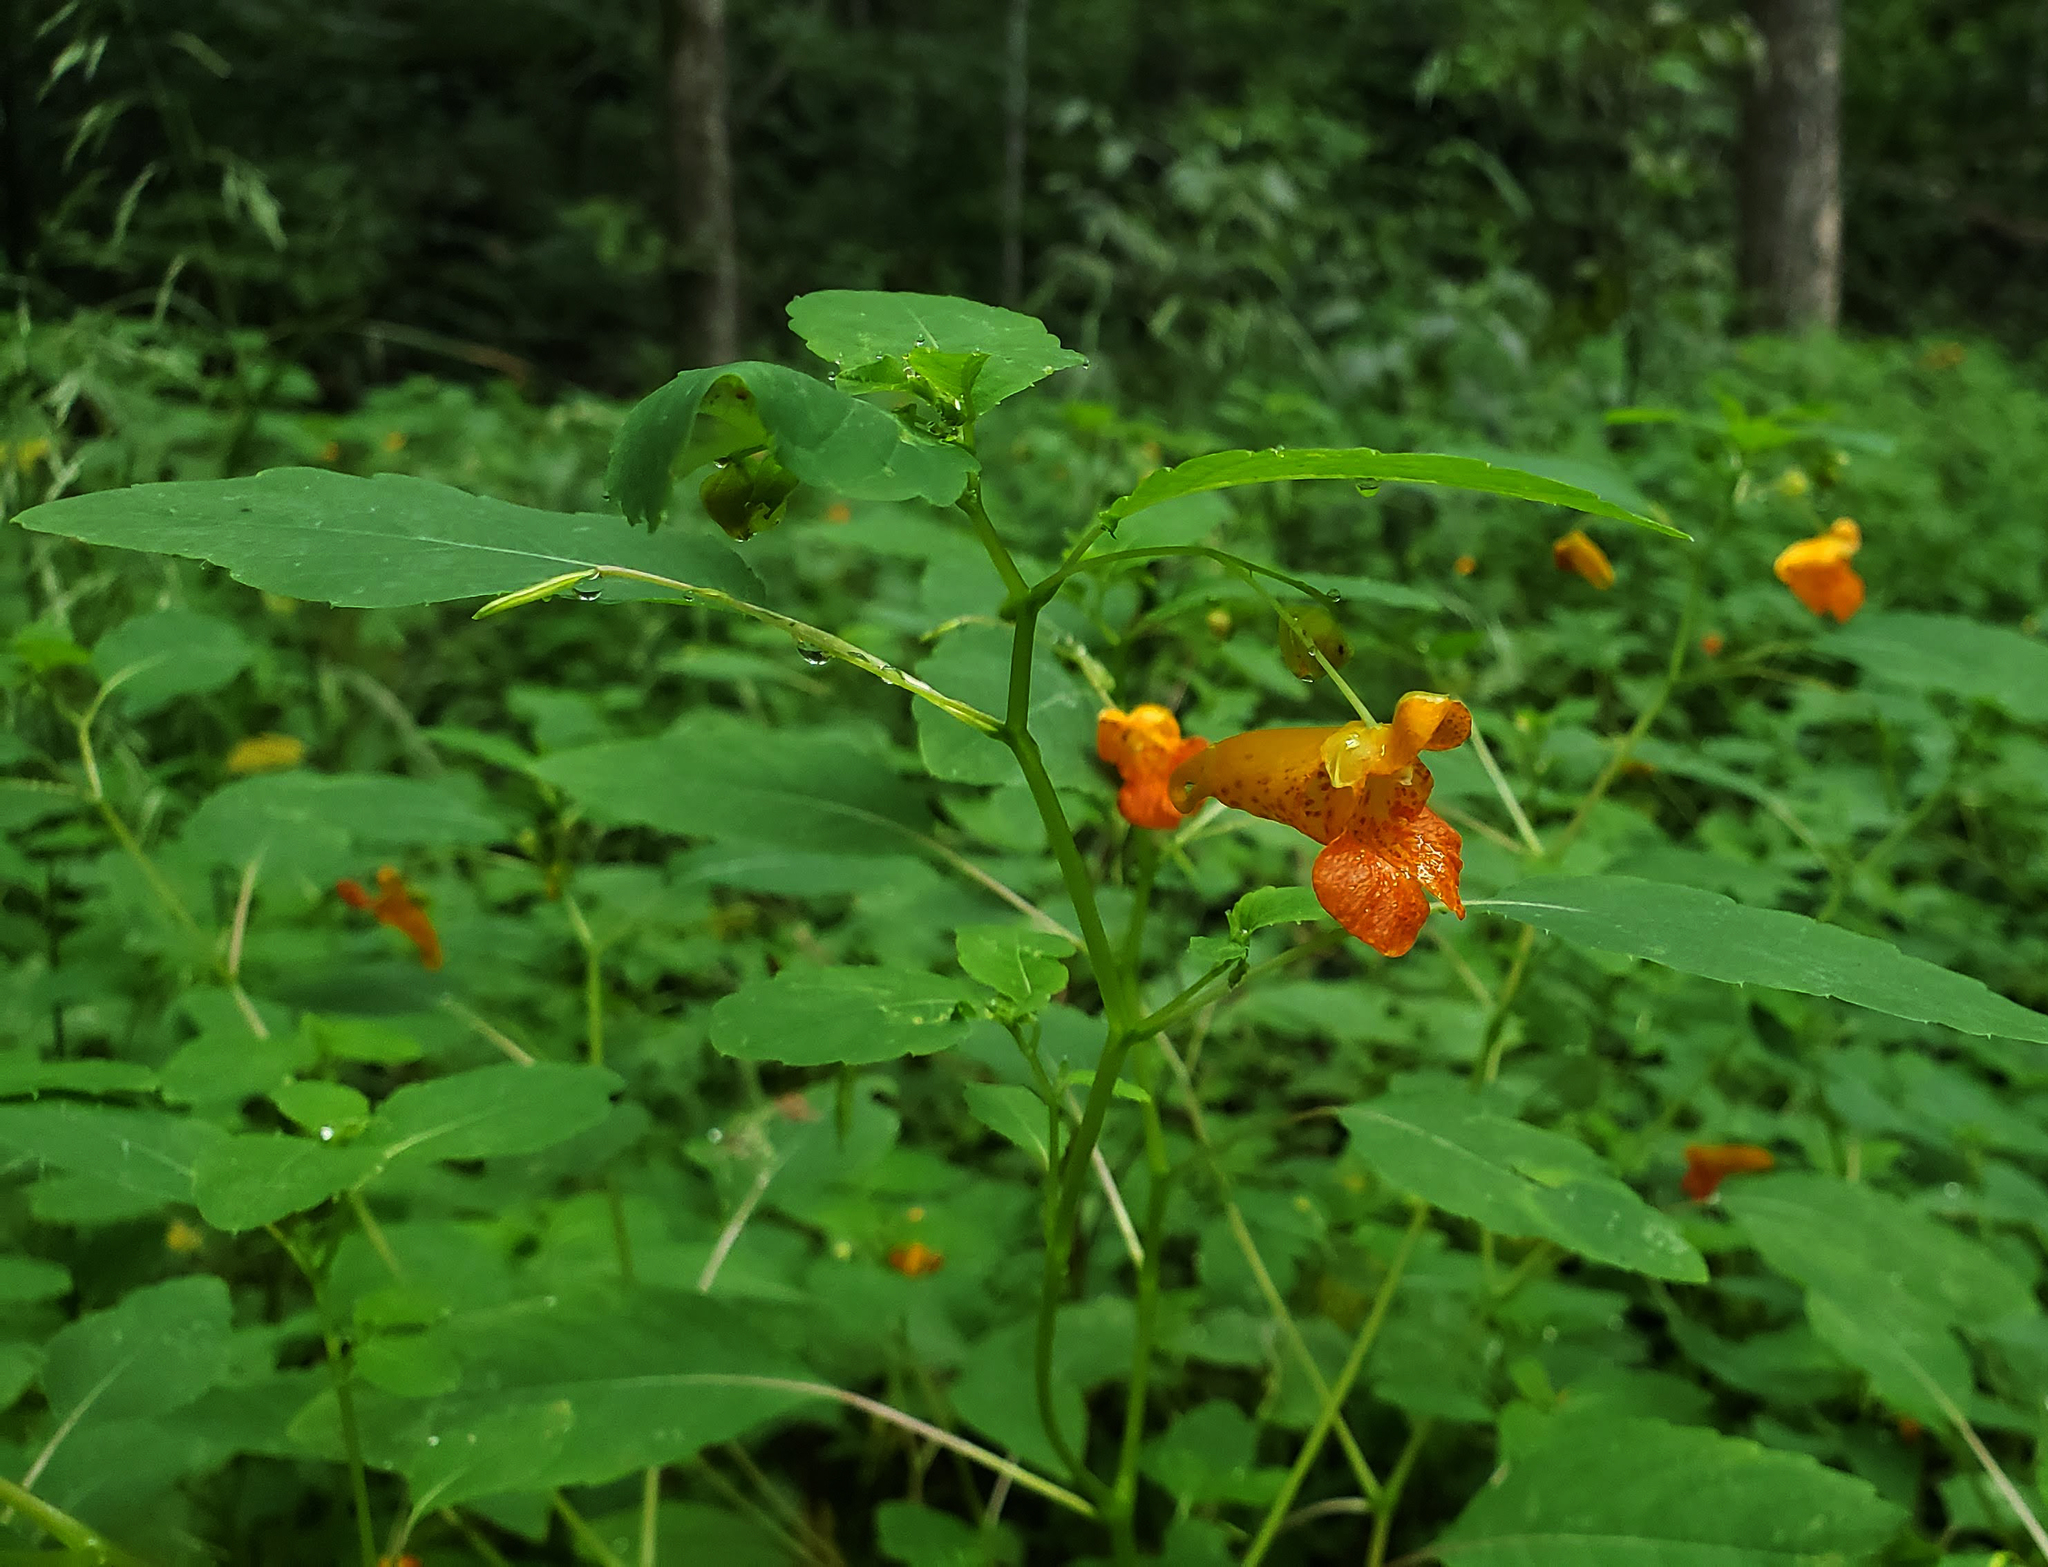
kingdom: Plantae
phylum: Tracheophyta
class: Magnoliopsida
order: Ericales
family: Balsaminaceae
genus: Impatiens
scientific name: Impatiens capensis
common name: Orange balsam
